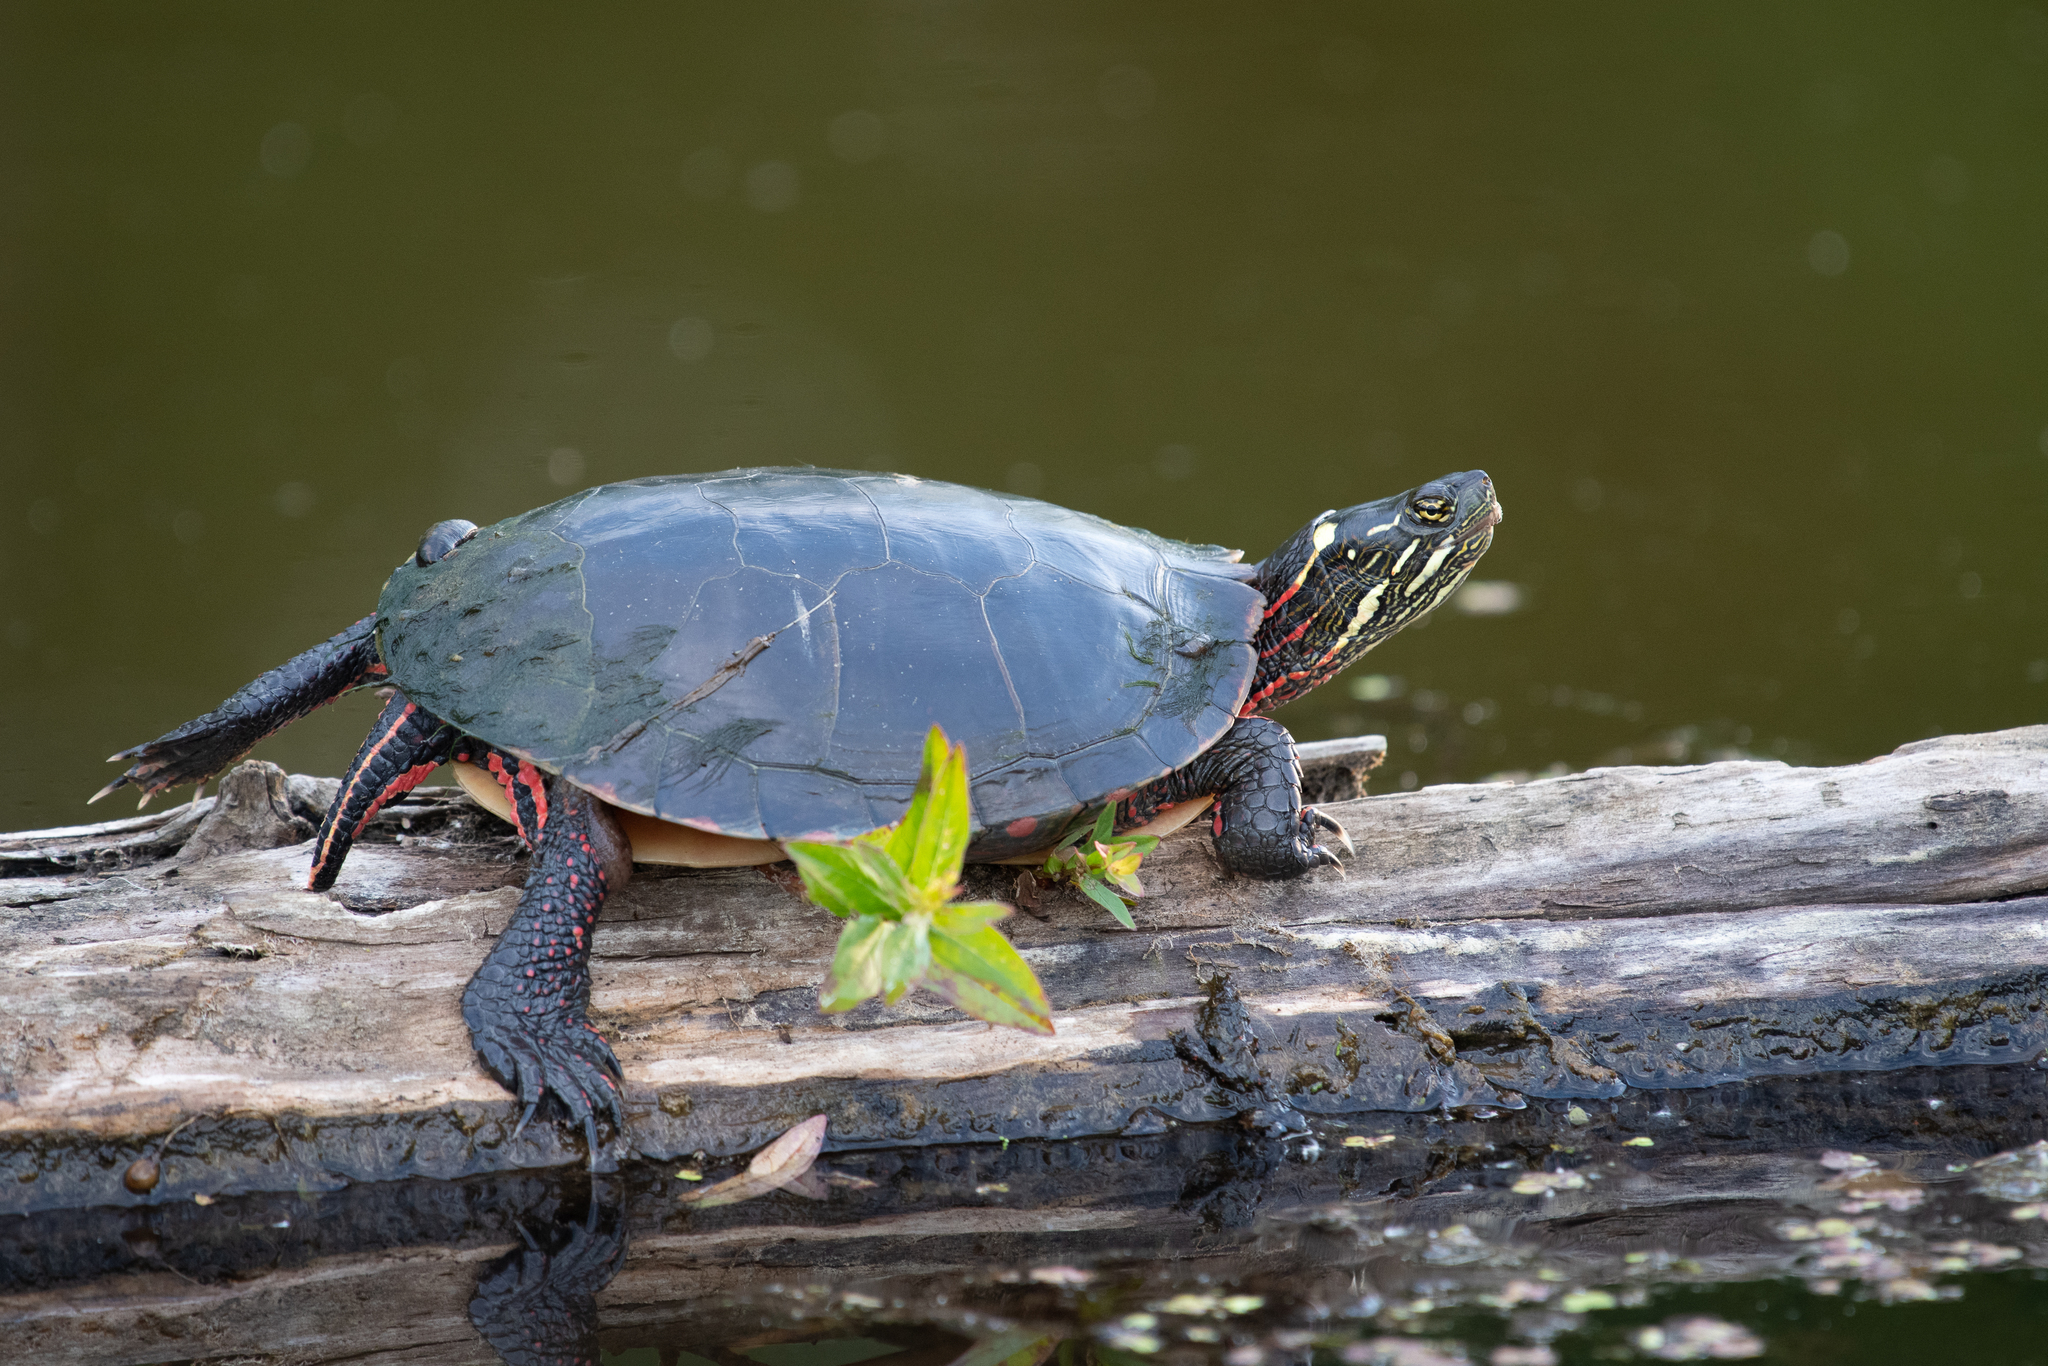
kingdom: Animalia
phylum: Chordata
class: Testudines
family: Emydidae
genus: Chrysemys
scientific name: Chrysemys picta
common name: Painted turtle
